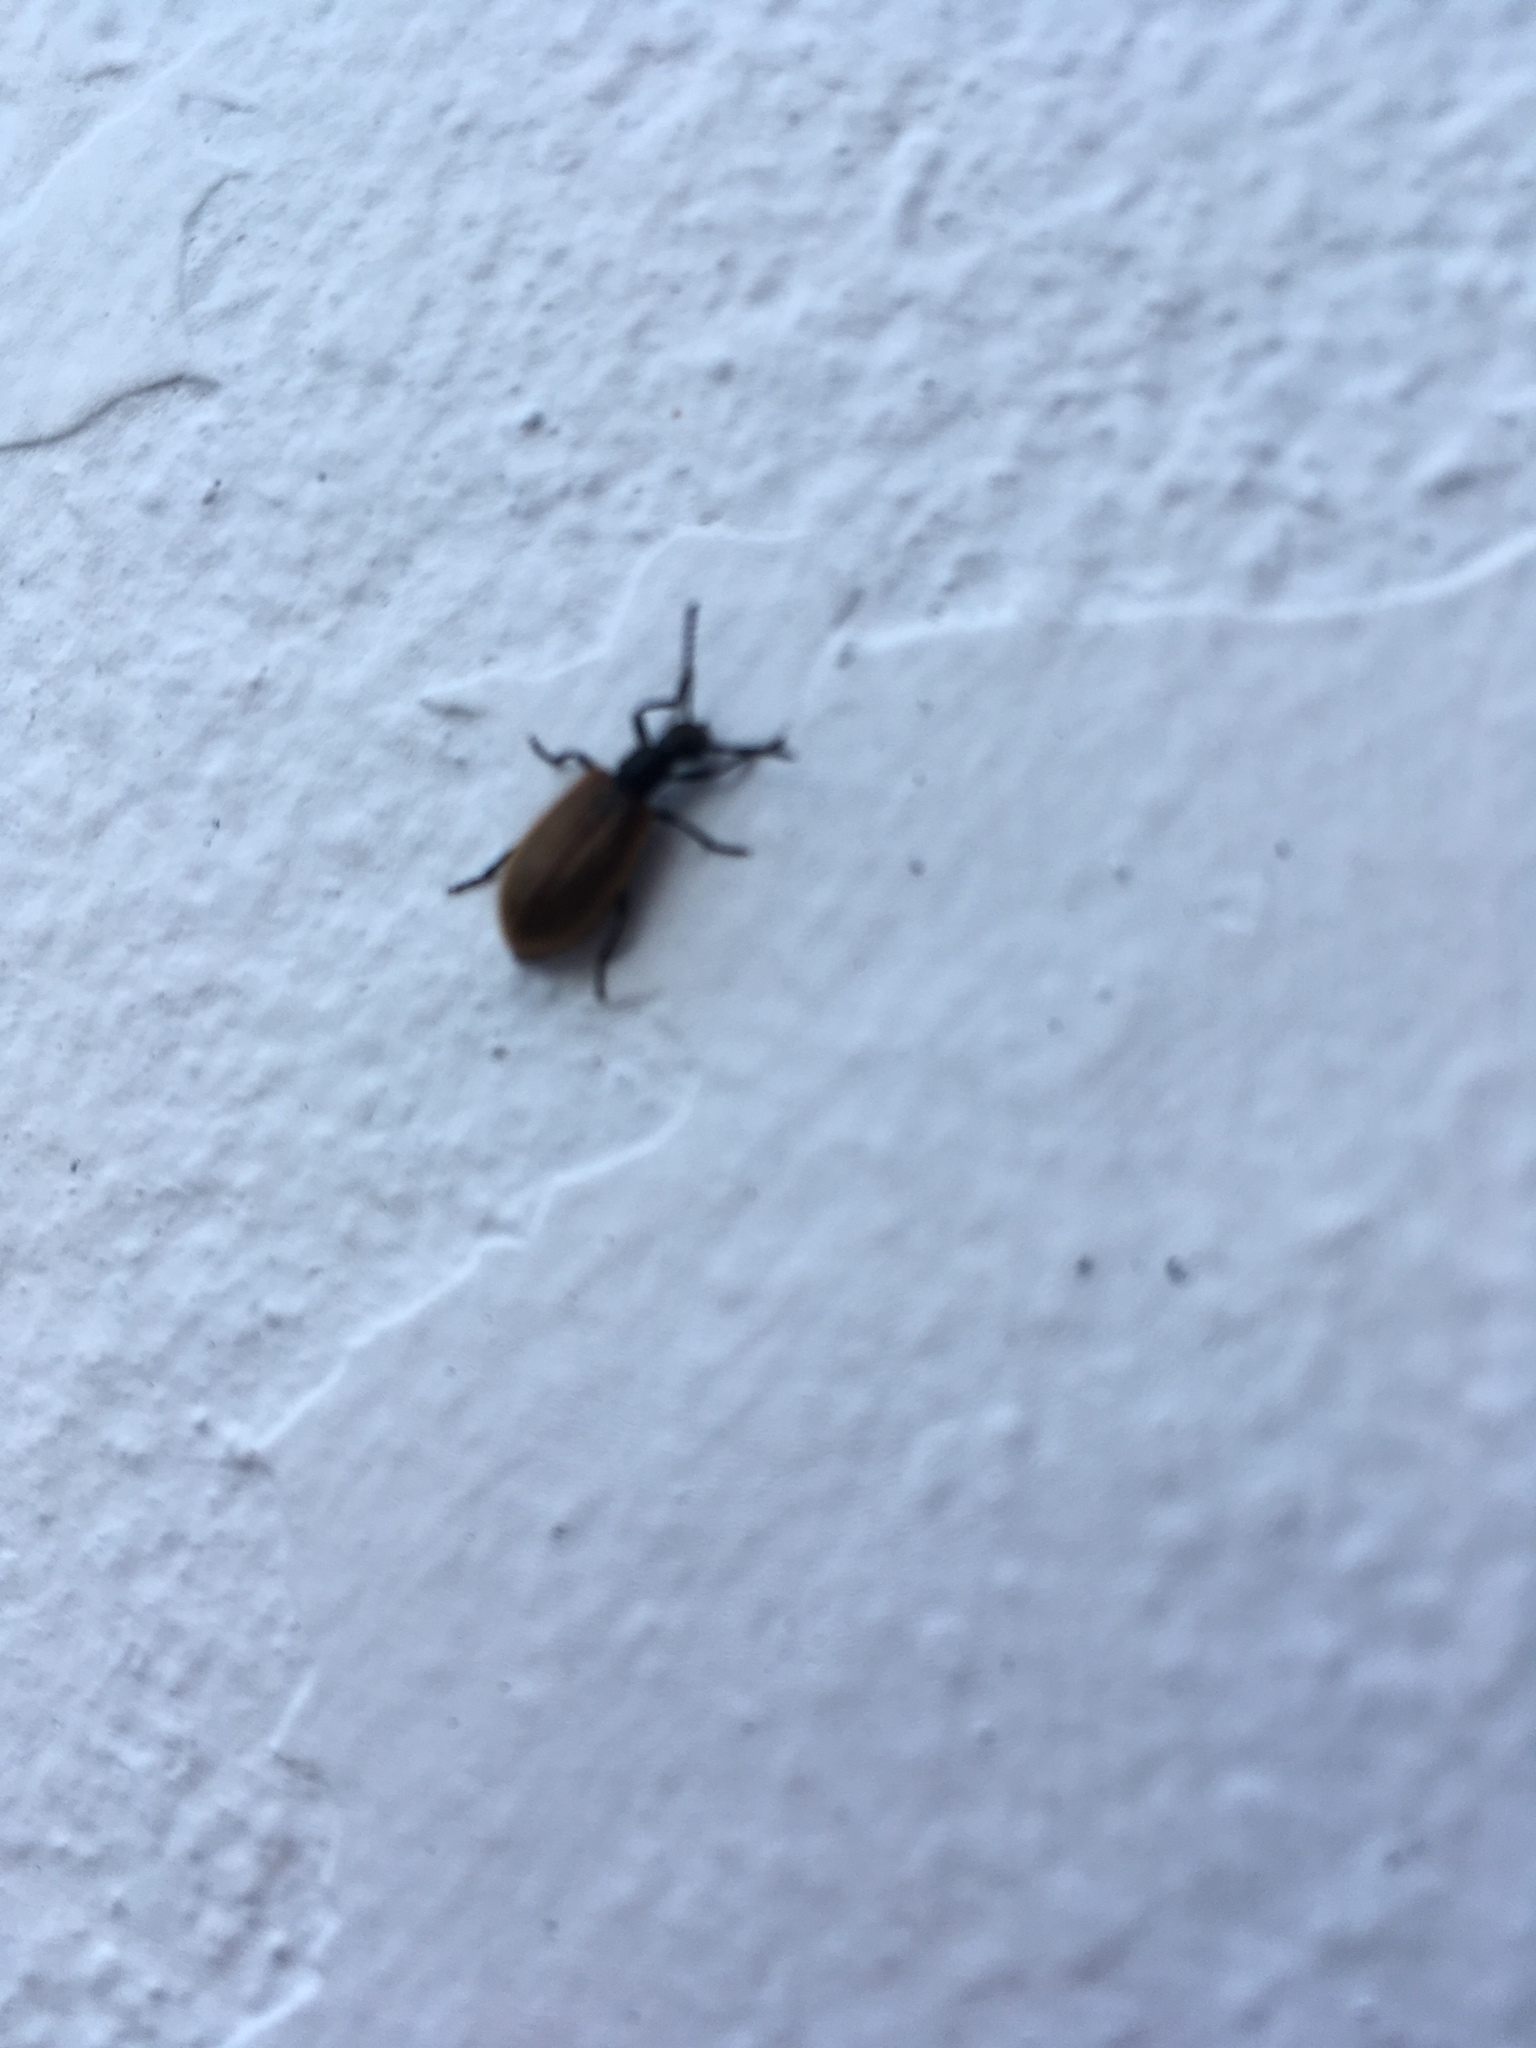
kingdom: Animalia
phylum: Arthropoda
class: Insecta
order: Coleoptera
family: Tenebrionidae
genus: Lagria
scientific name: Lagria hirta
